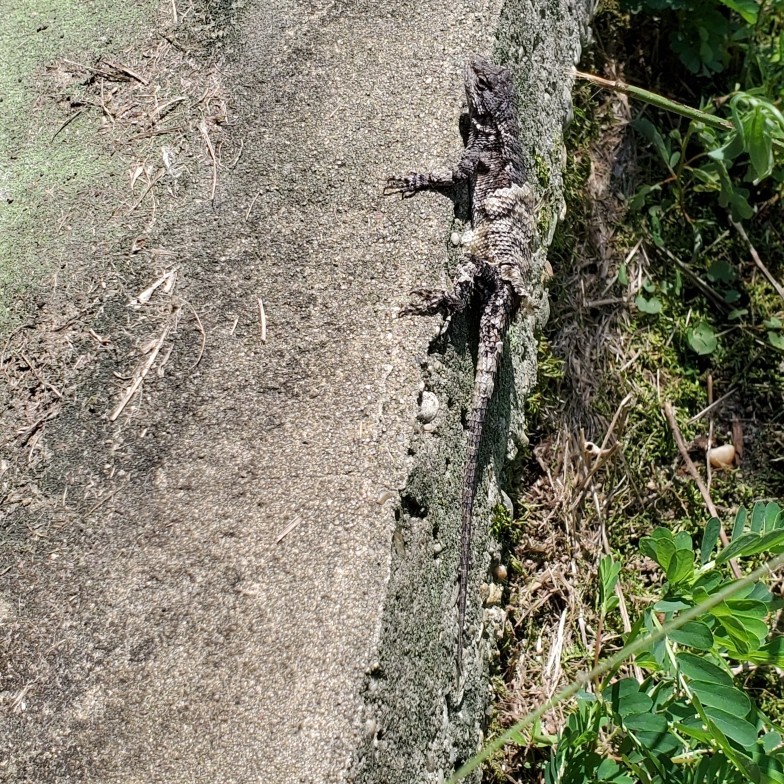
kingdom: Animalia
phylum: Chordata
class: Squamata
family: Phrynosomatidae
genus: Sceloporus
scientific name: Sceloporus undulatus
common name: Eastern fence lizard
